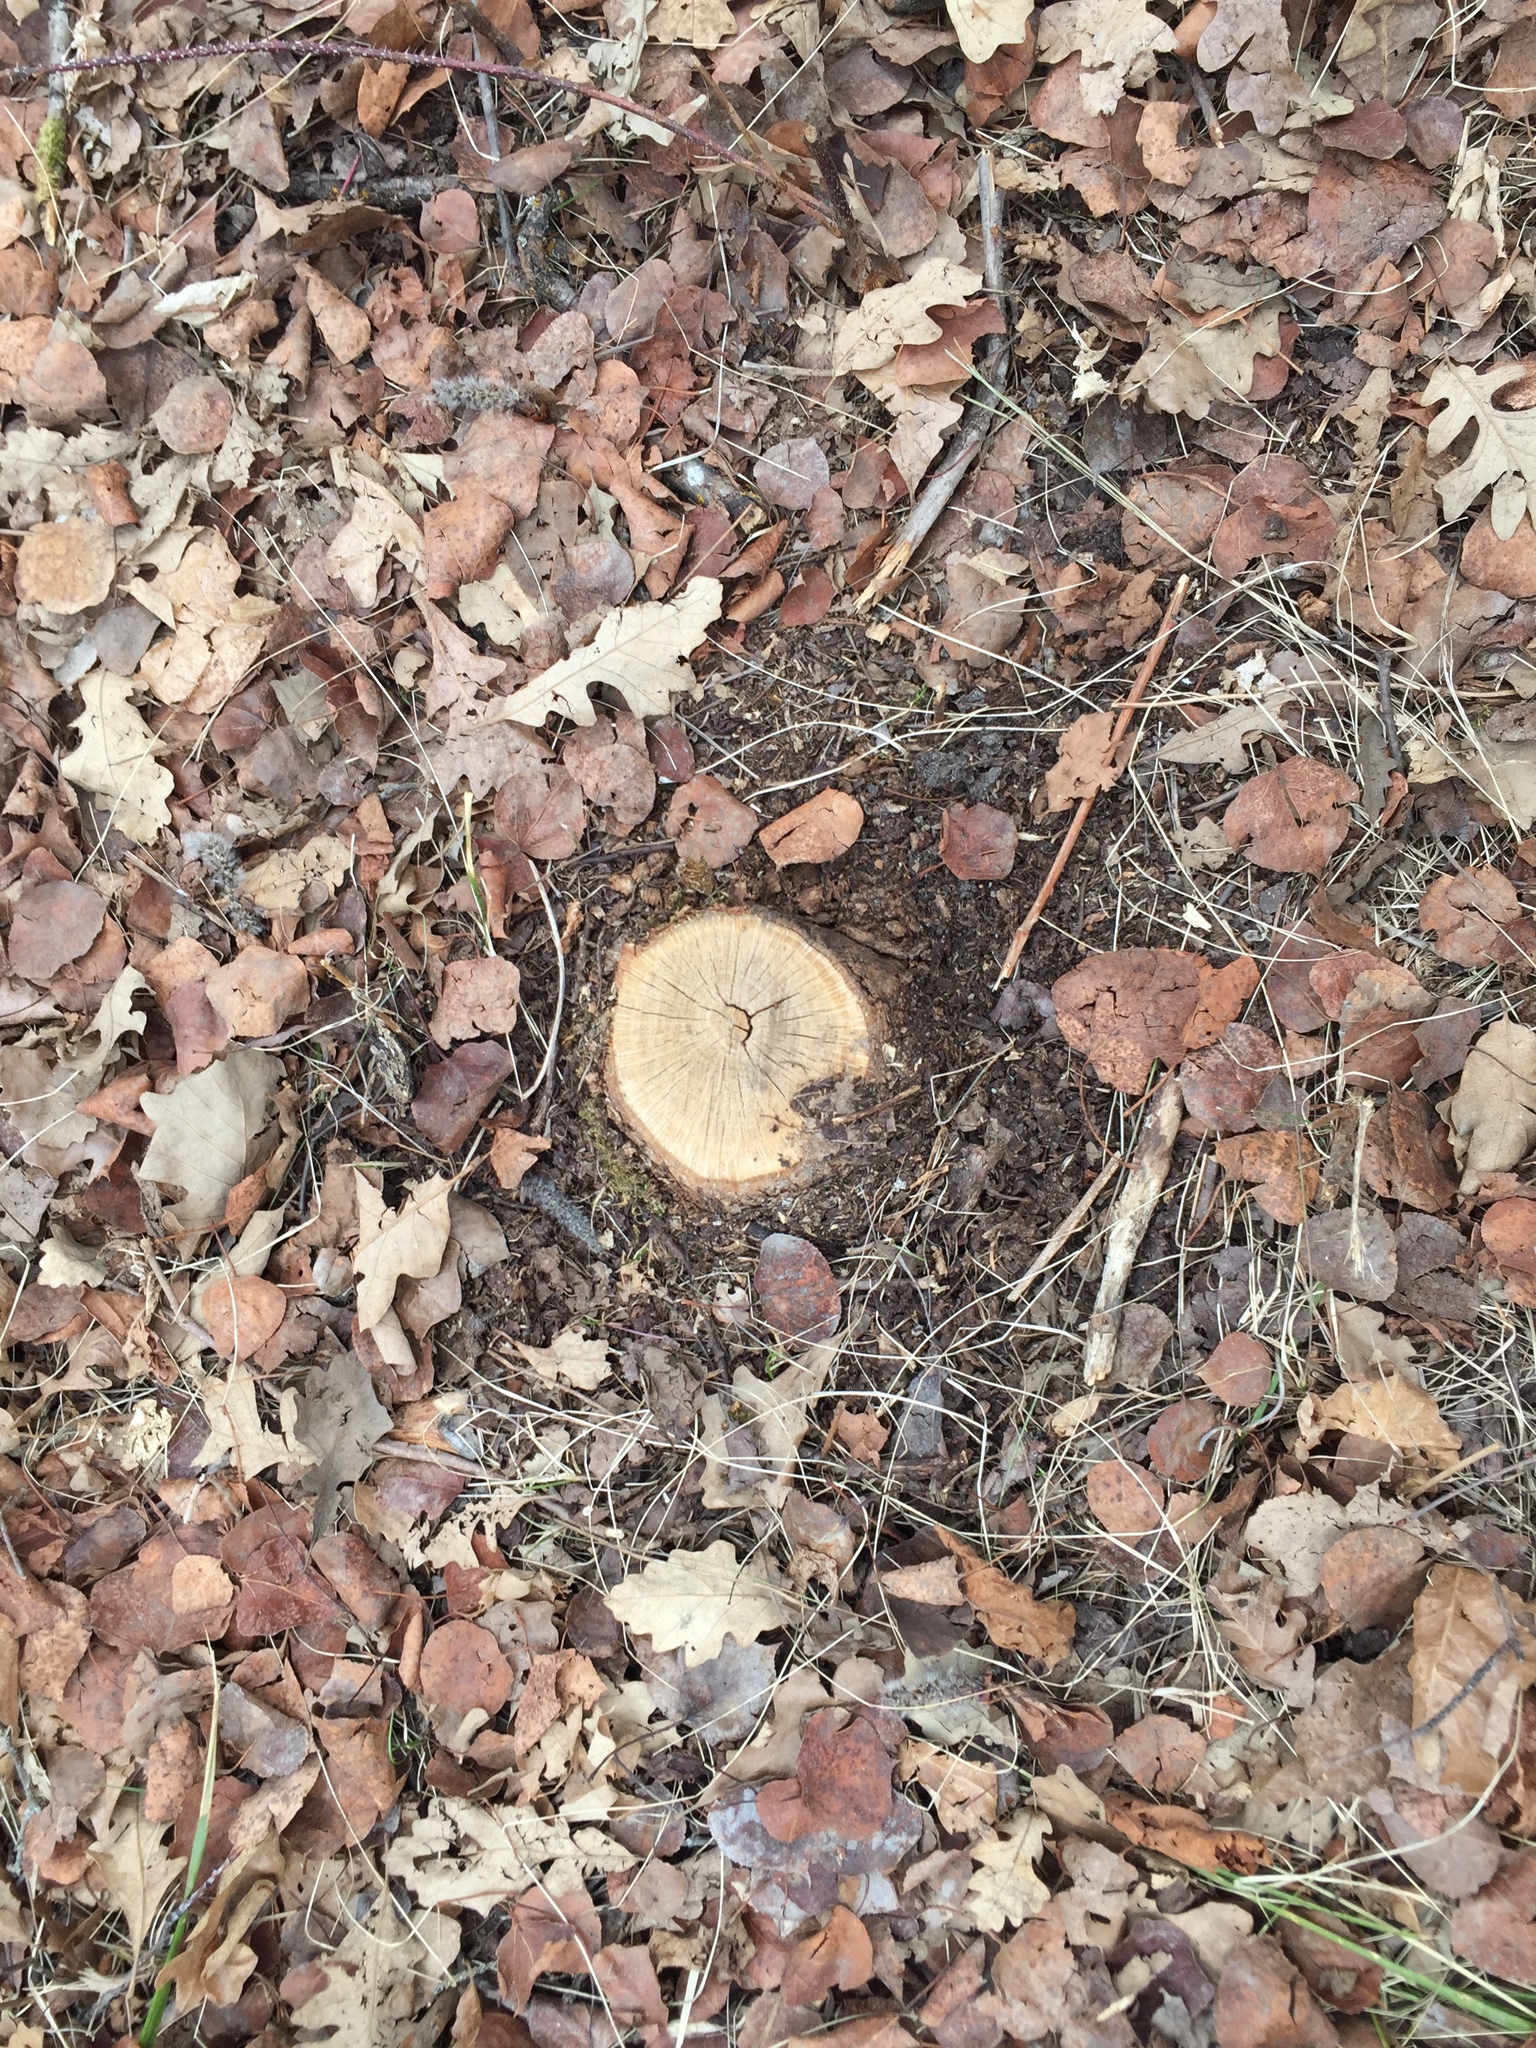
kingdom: Plantae
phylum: Tracheophyta
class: Magnoliopsida
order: Fagales
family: Fagaceae
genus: Quercus
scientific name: Quercus macrocarpa
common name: Bur oak
